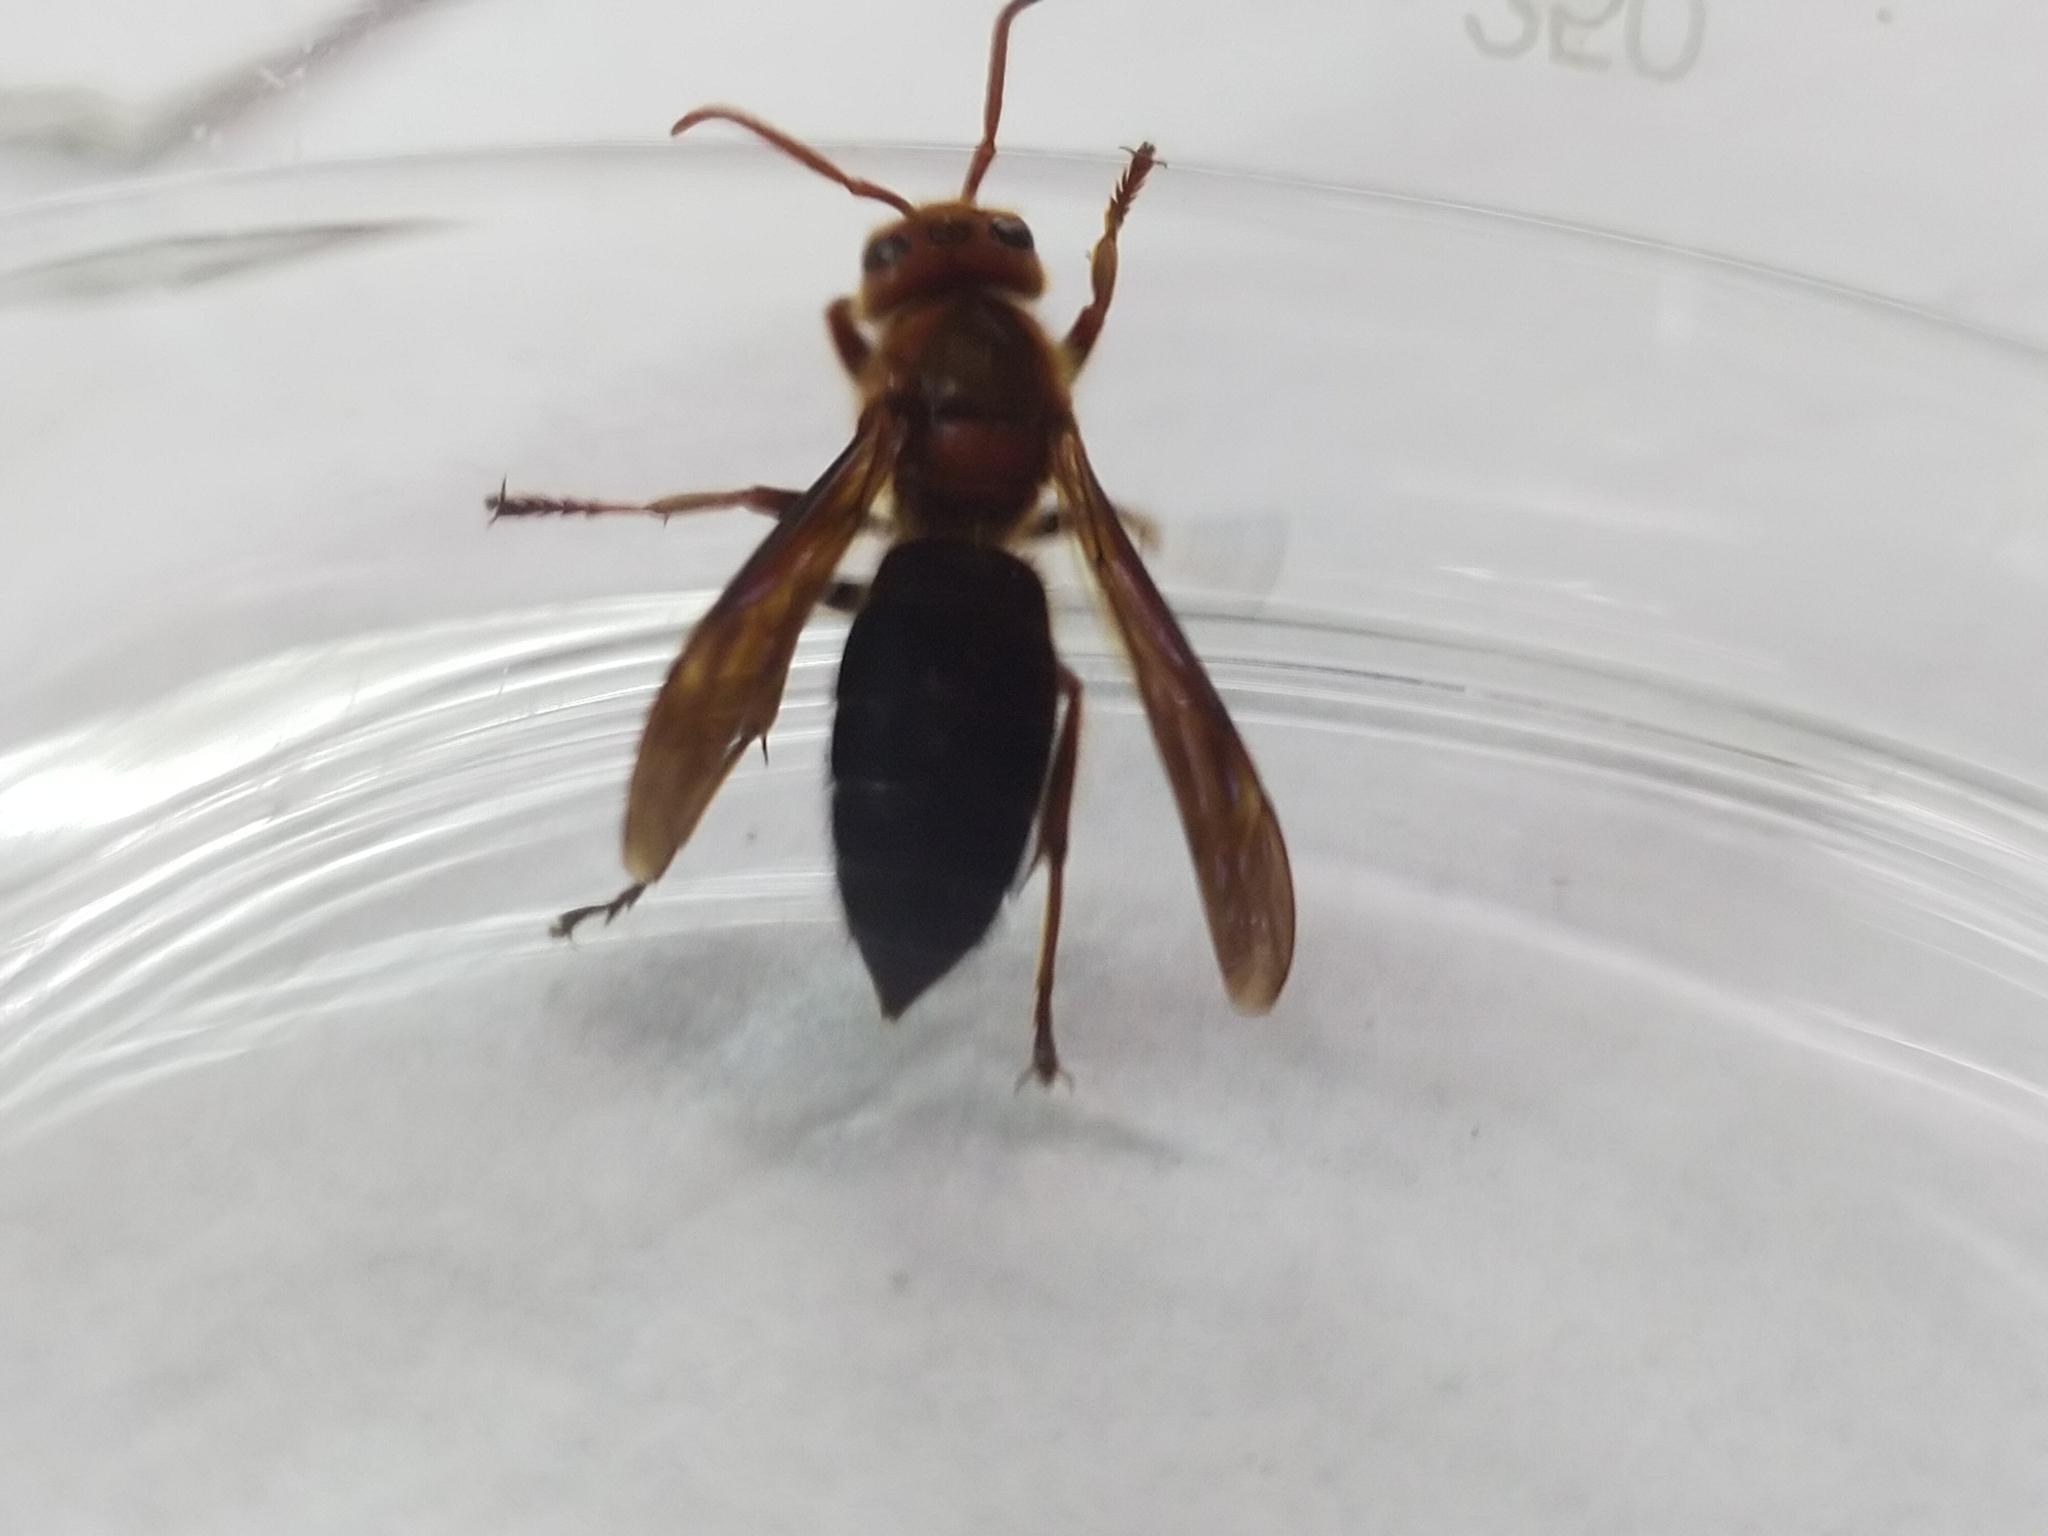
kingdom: Animalia
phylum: Arthropoda
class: Insecta
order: Hymenoptera
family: Vespidae
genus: Vespa
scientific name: Vespa basalis
